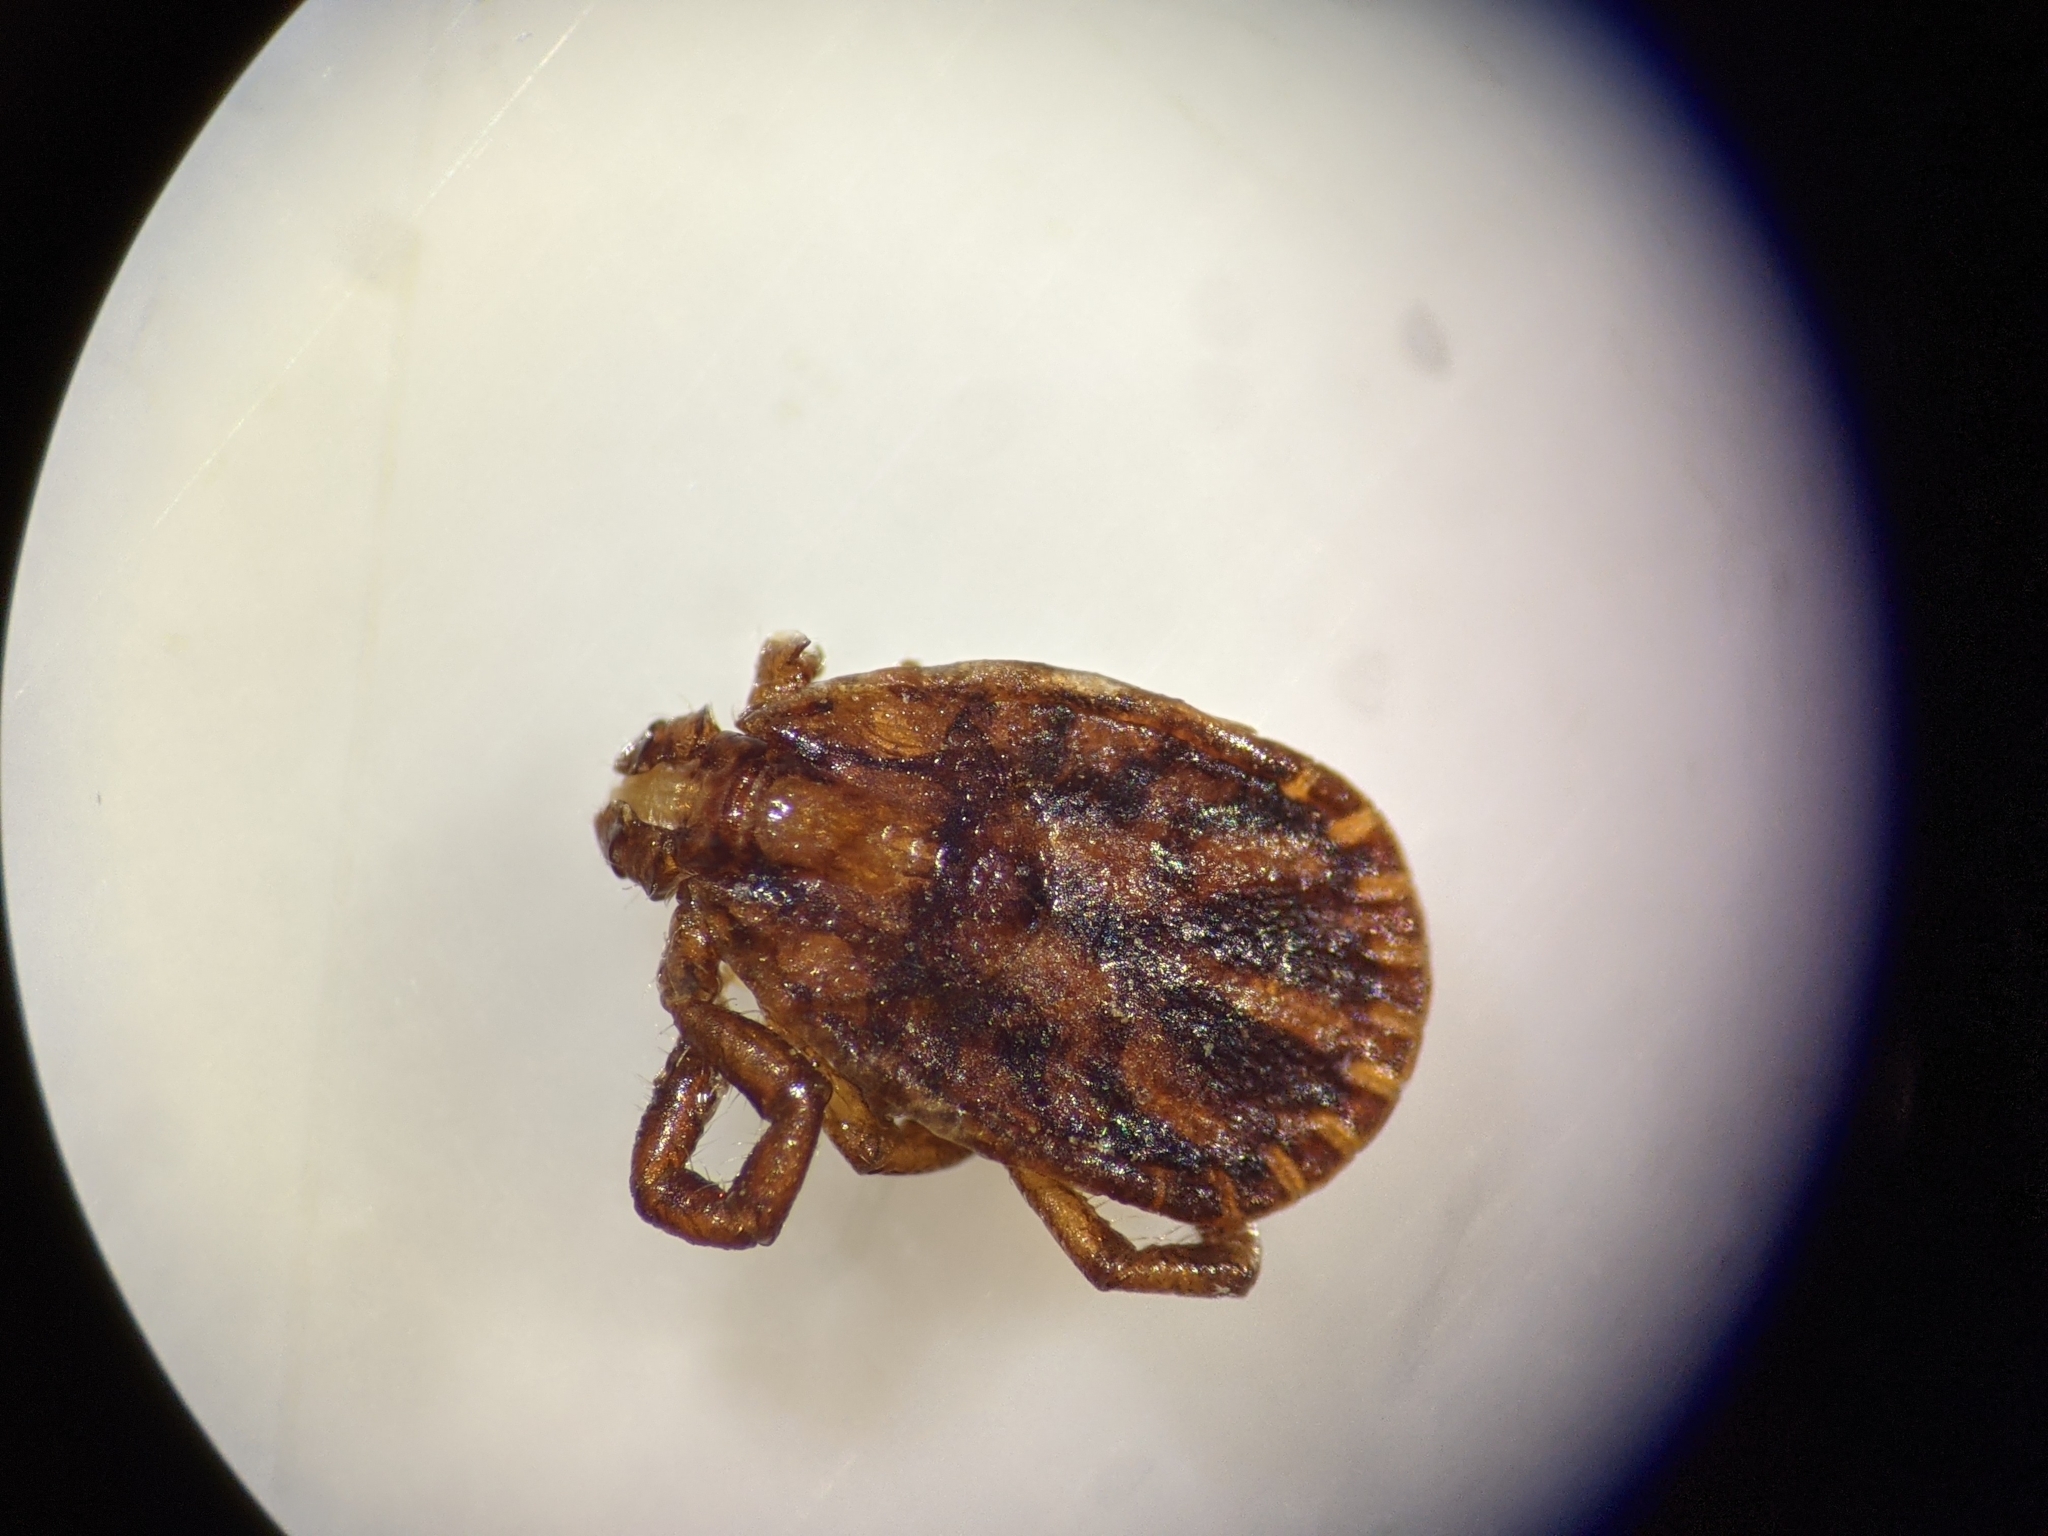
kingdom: Animalia
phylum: Arthropoda
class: Arachnida
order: Ixodida
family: Ixodidae
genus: Haemaphysalis
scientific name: Haemaphysalis longicornis
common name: Bush tick
